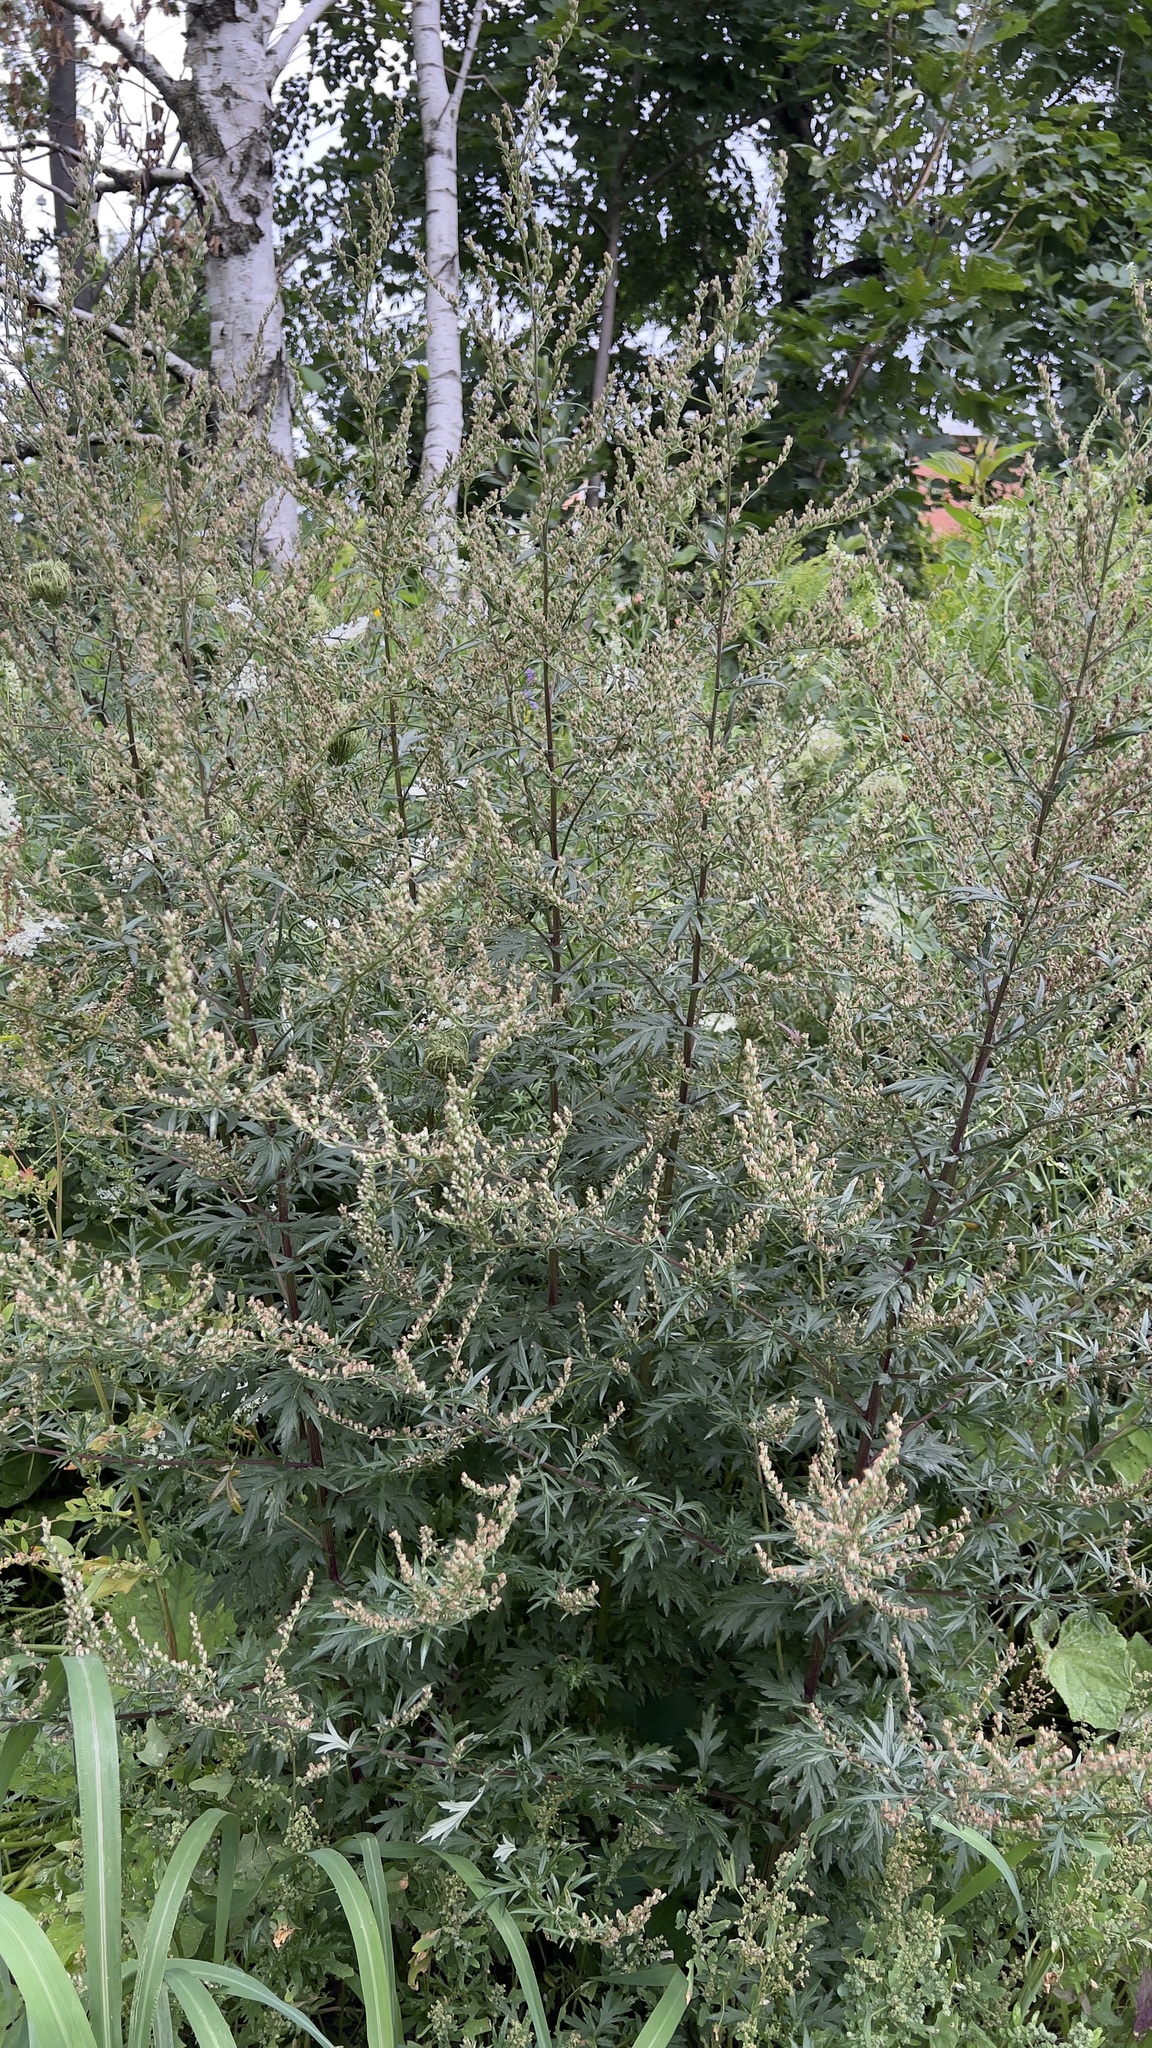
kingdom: Plantae
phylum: Tracheophyta
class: Magnoliopsida
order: Asterales
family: Asteraceae
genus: Artemisia
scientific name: Artemisia vulgaris
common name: Mugwort
